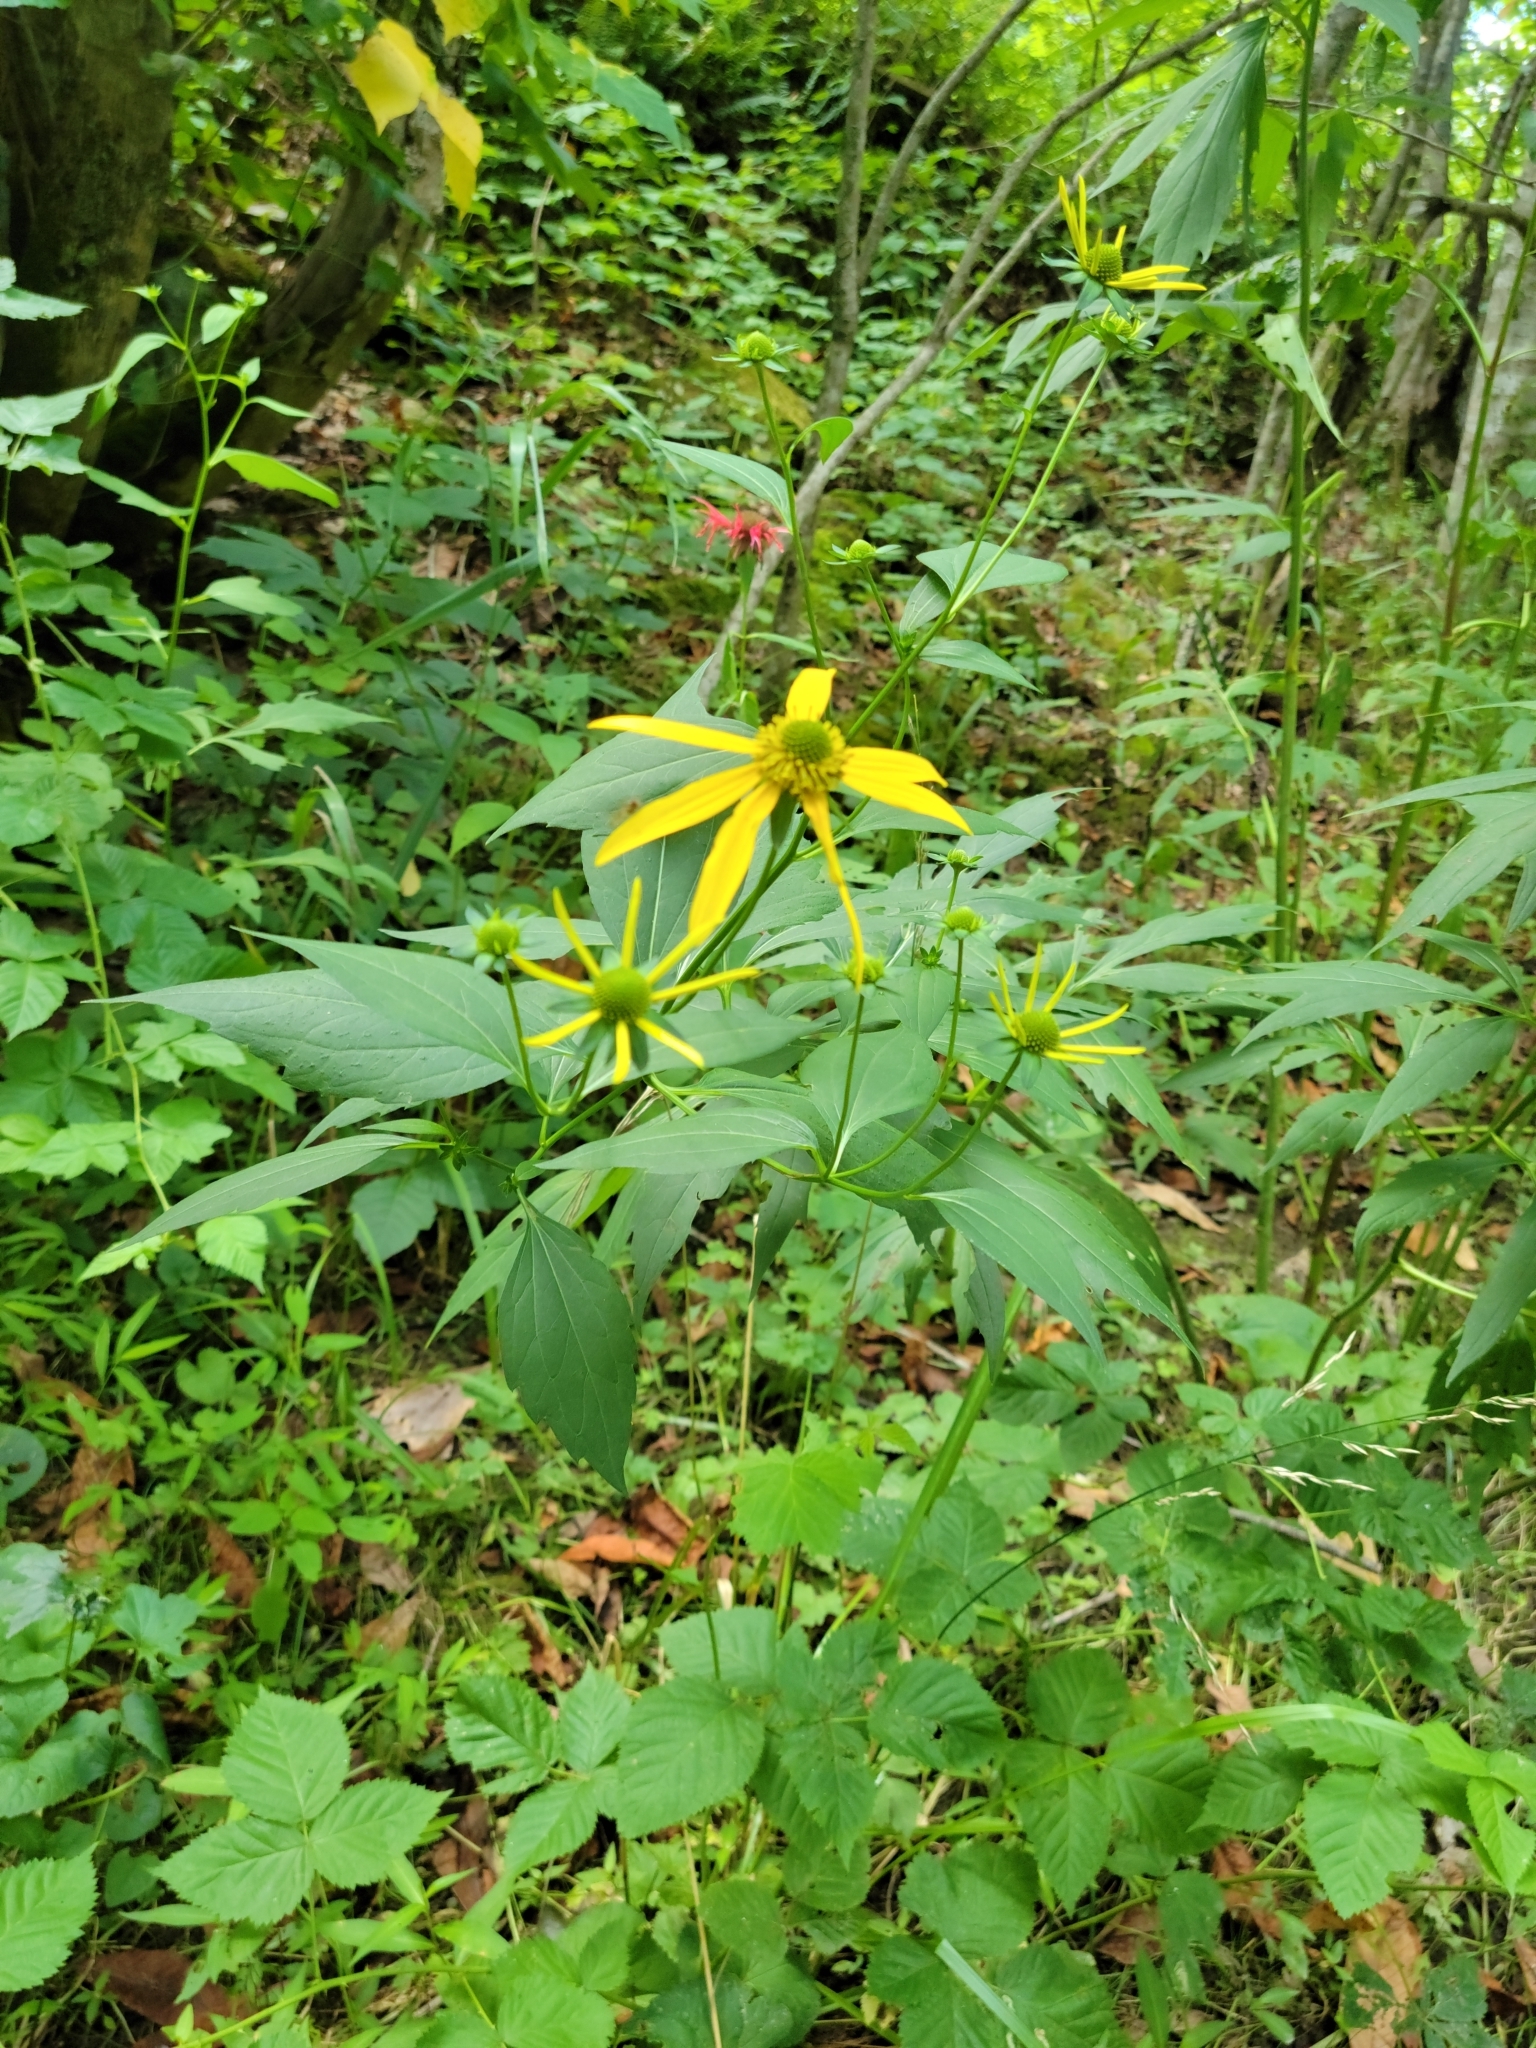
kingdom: Plantae
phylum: Tracheophyta
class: Magnoliopsida
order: Asterales
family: Asteraceae
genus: Rudbeckia
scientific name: Rudbeckia laciniata
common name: Coneflower
